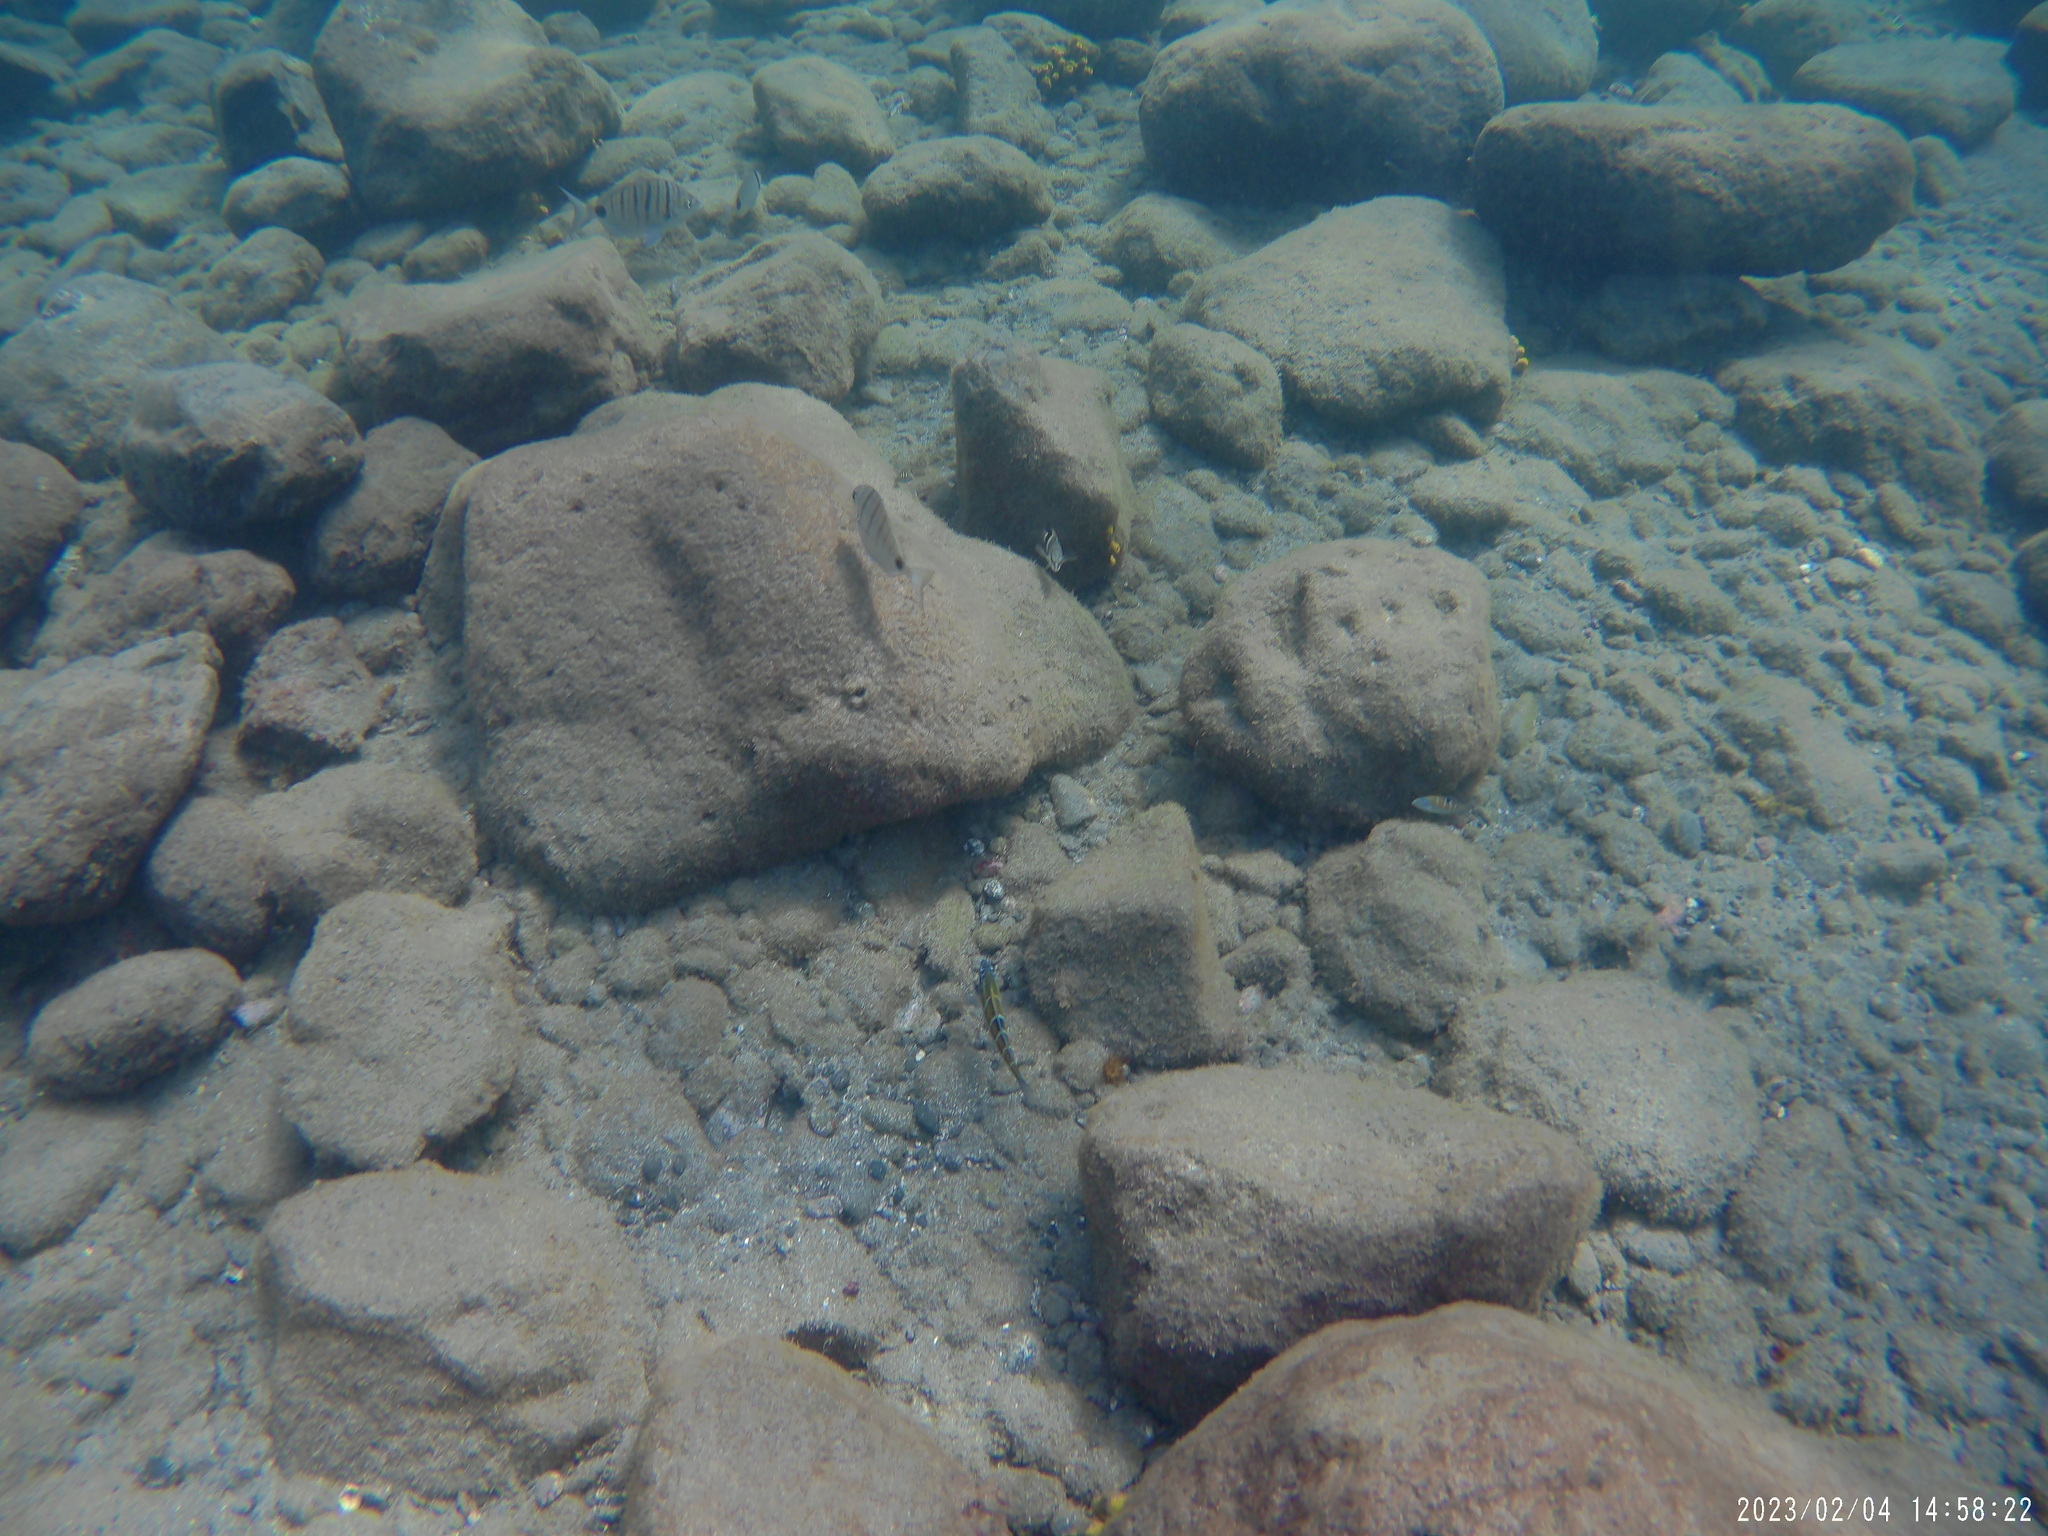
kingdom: Animalia
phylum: Chordata
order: Perciformes
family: Sparidae
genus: Diplodus
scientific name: Diplodus puntazzo
